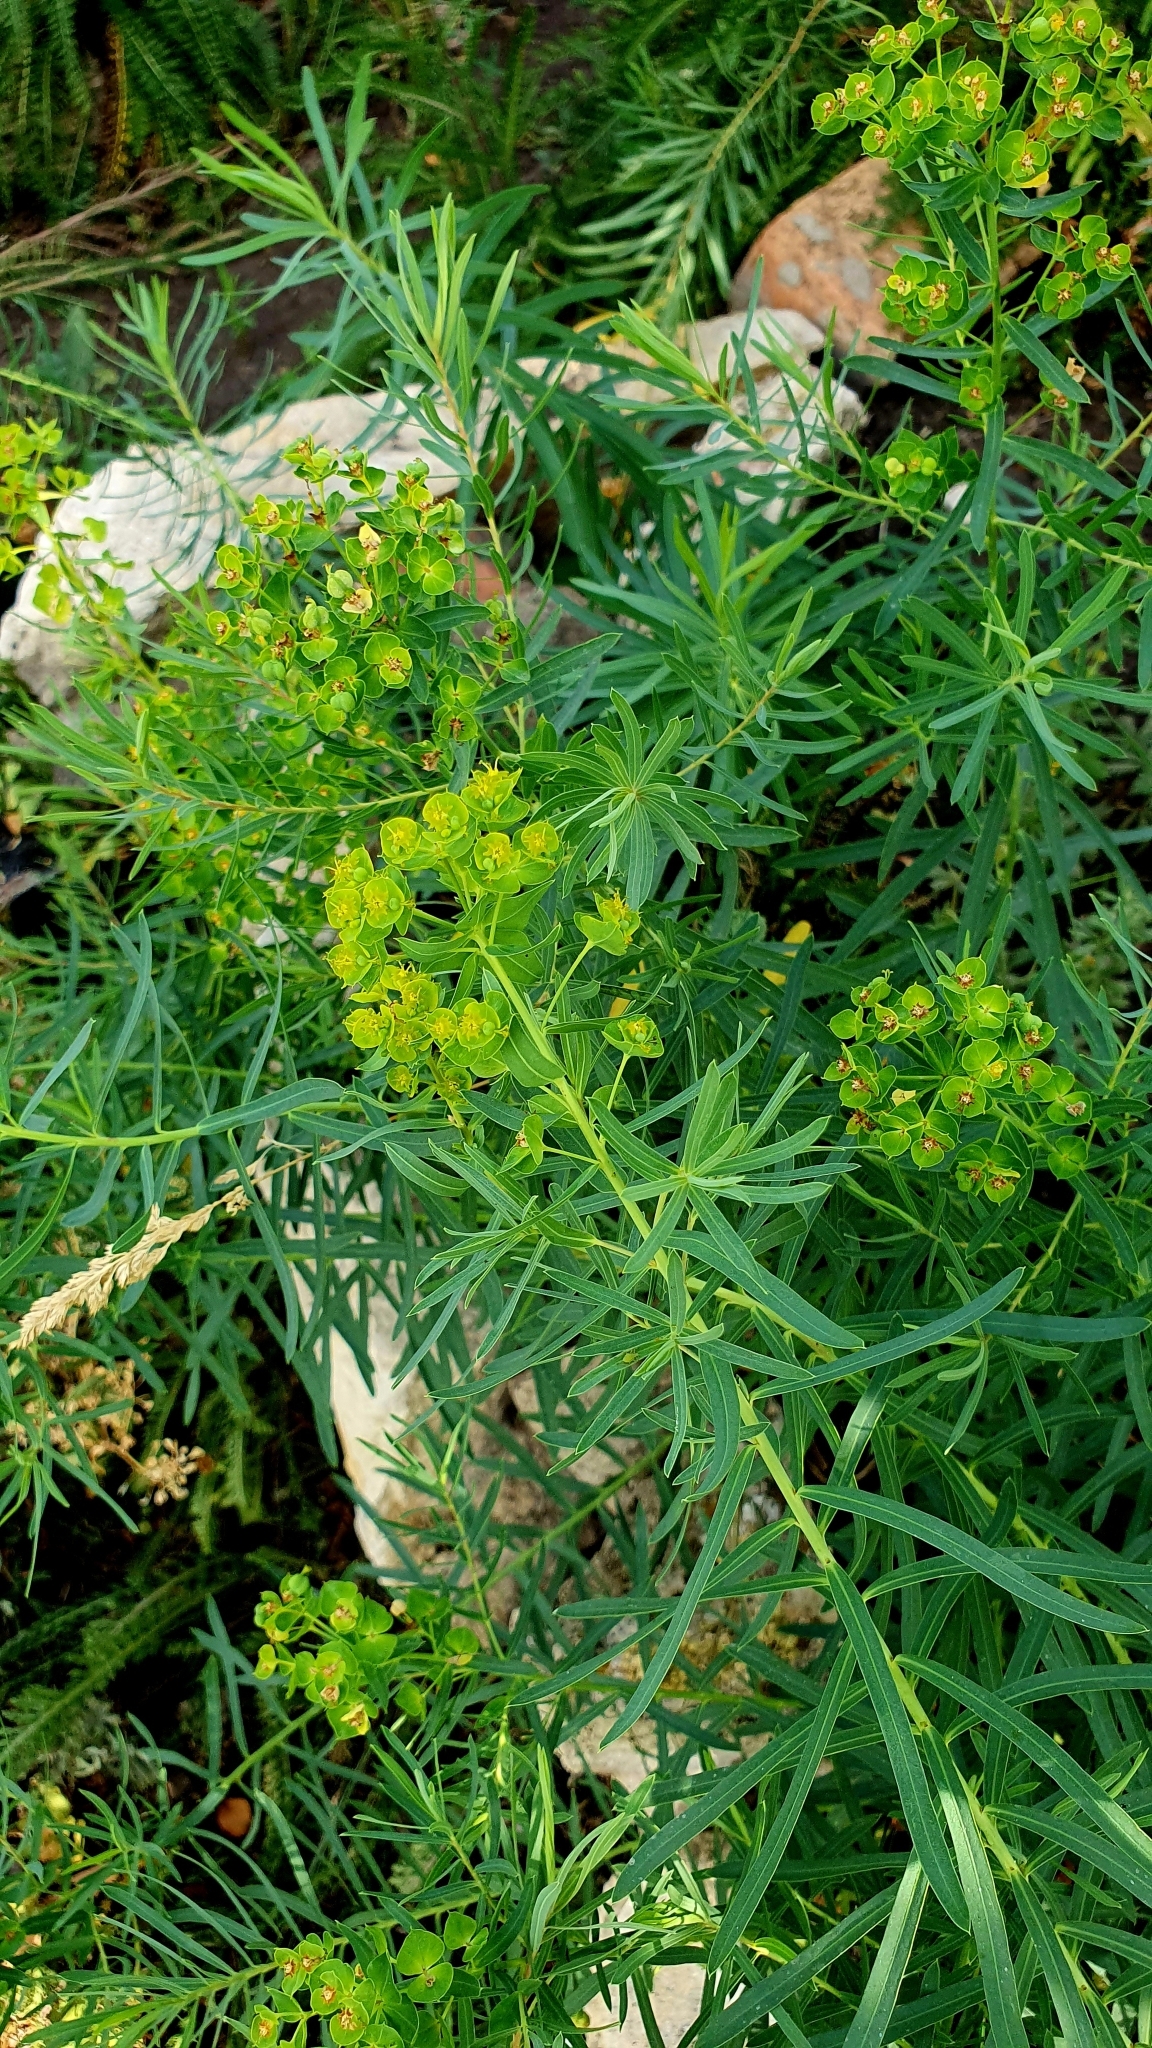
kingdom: Plantae
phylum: Tracheophyta
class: Magnoliopsida
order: Malpighiales
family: Euphorbiaceae
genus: Euphorbia
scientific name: Euphorbia virgata
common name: Leafy spurge
